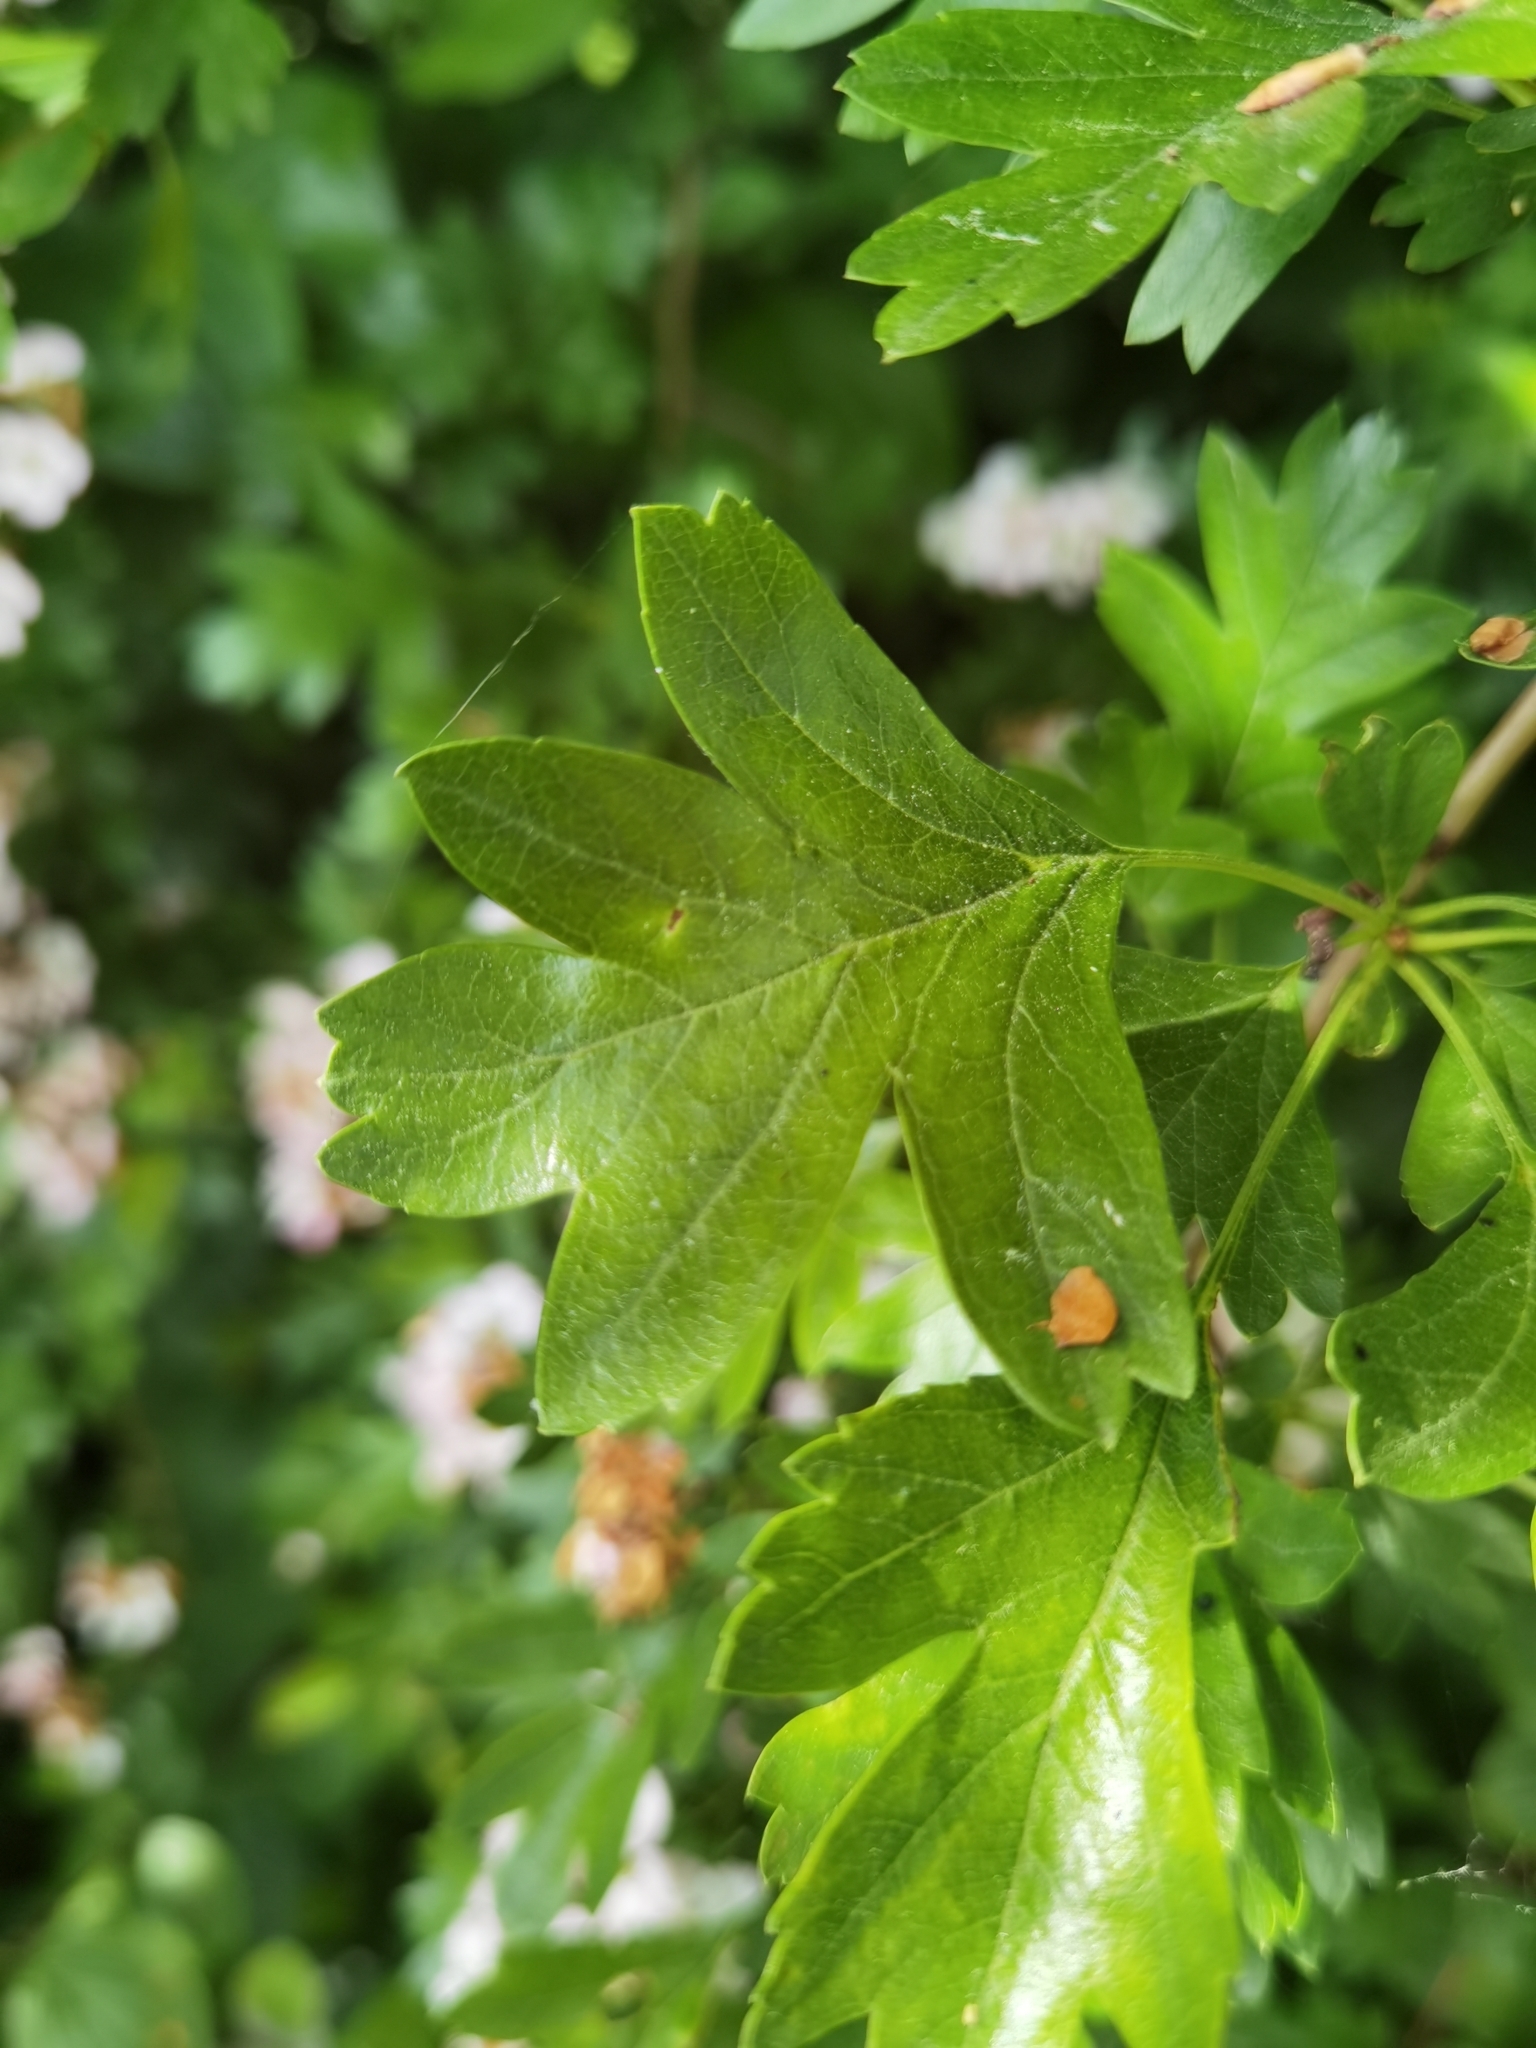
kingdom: Plantae
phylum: Tracheophyta
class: Magnoliopsida
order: Rosales
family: Rosaceae
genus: Crataegus
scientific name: Crataegus monogyna
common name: Hawthorn
